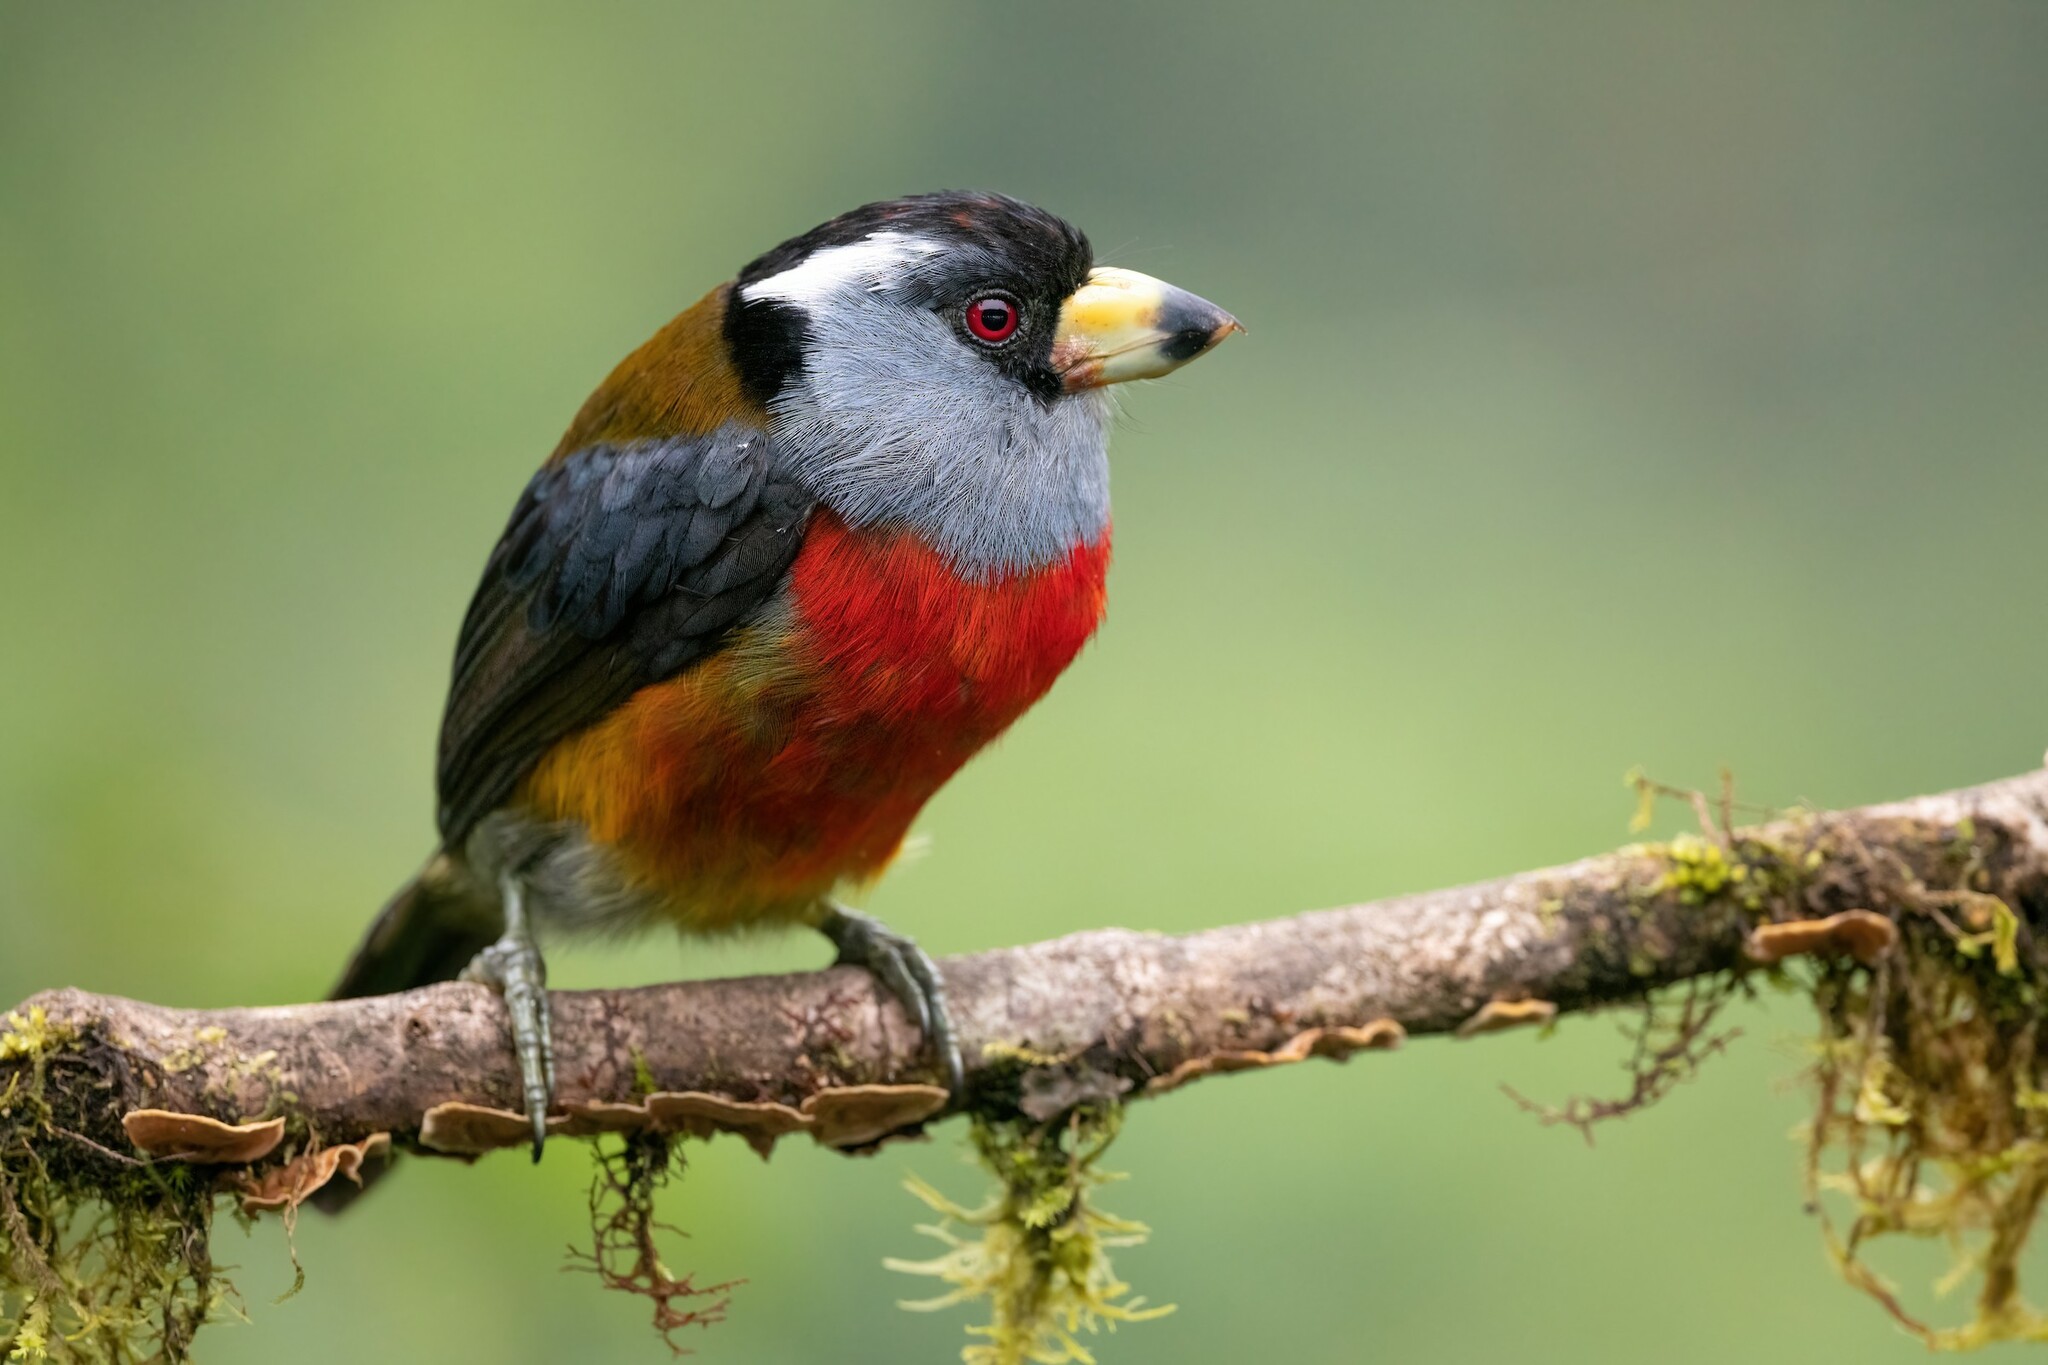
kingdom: Animalia
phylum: Chordata
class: Aves
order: Piciformes
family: Semnornithidae
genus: Semnornis
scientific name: Semnornis ramphastinus
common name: Toucan barbet
